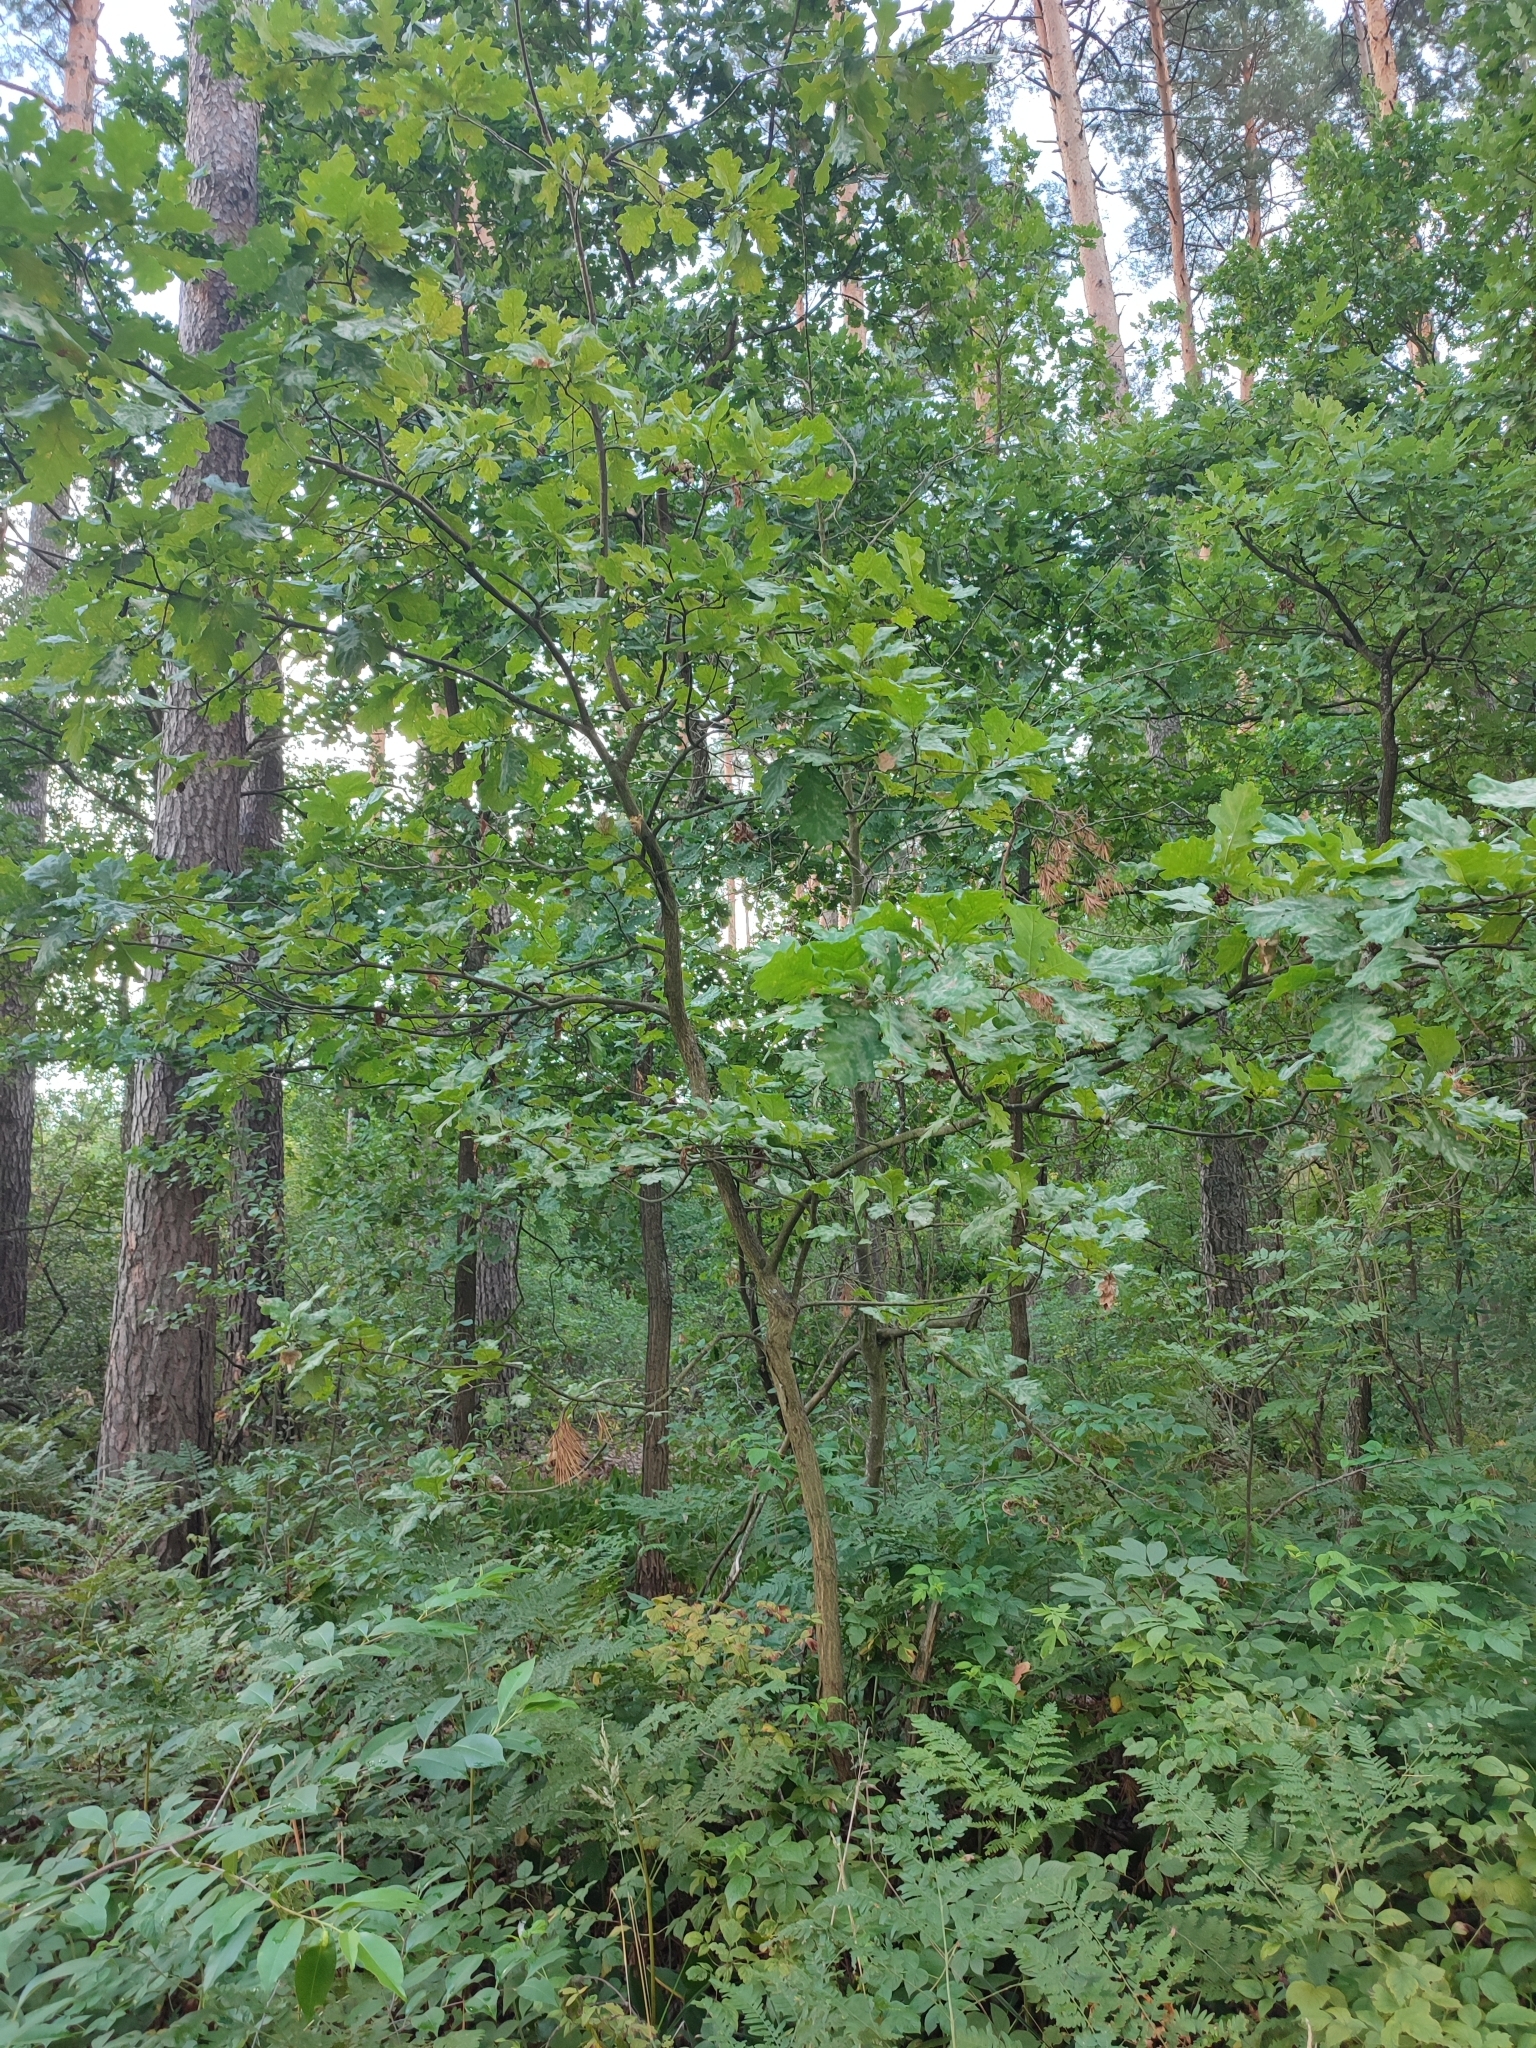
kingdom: Plantae
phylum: Tracheophyta
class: Magnoliopsida
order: Fagales
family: Fagaceae
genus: Quercus
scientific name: Quercus robur
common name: Pedunculate oak
